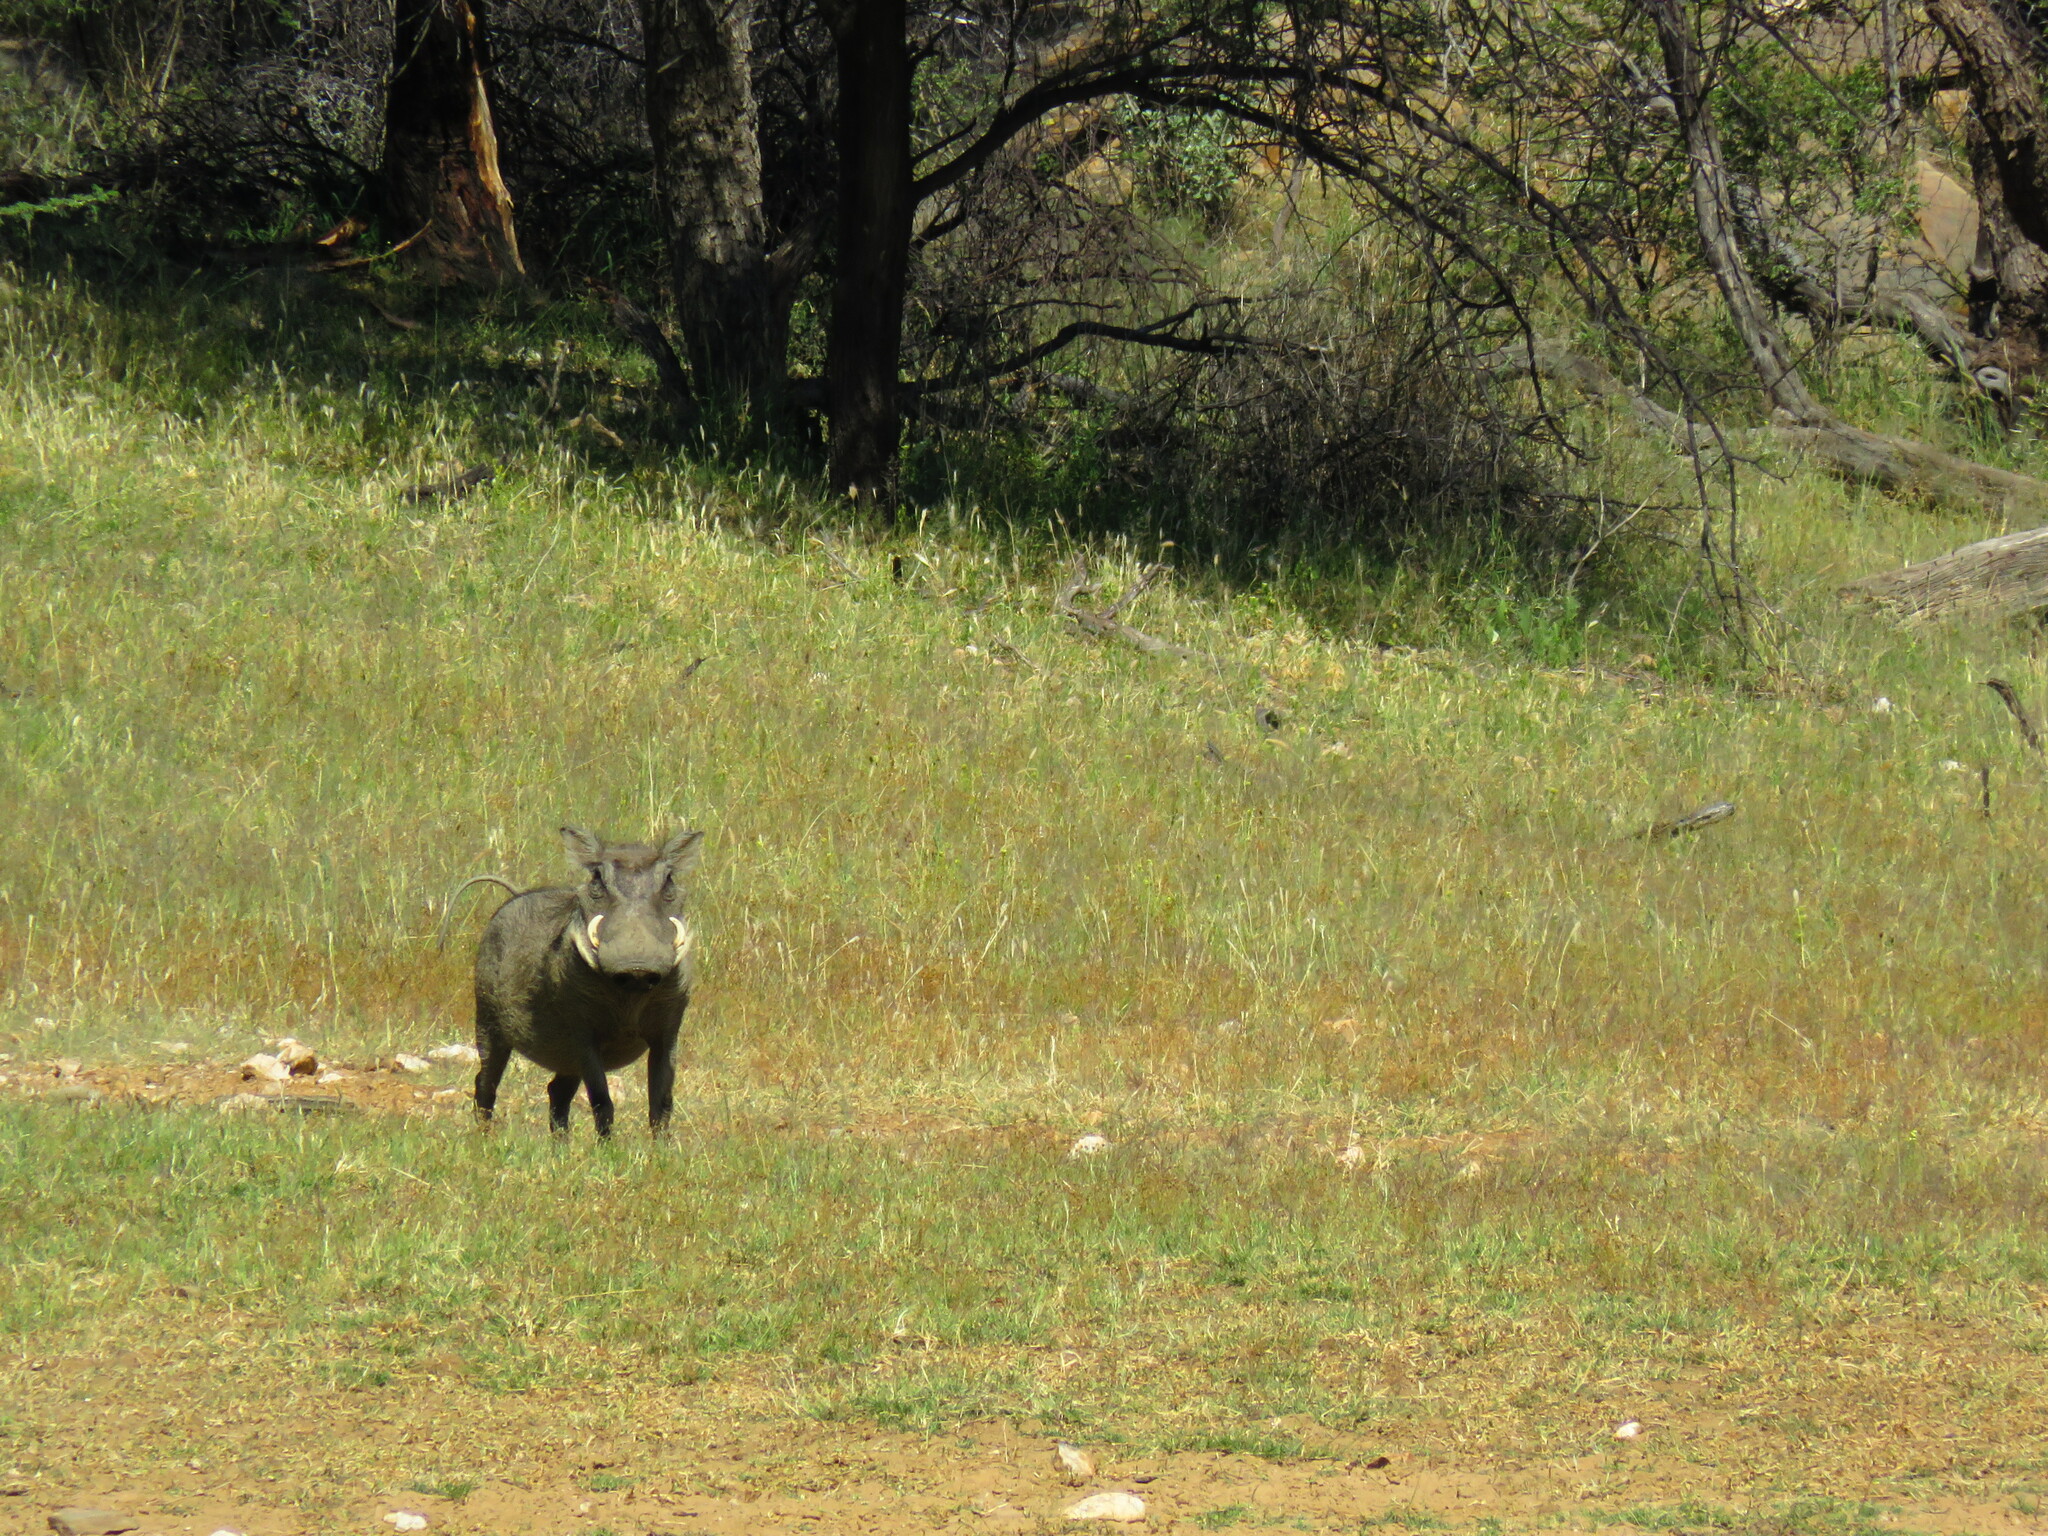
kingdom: Animalia
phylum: Chordata
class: Mammalia
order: Artiodactyla
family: Suidae
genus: Phacochoerus
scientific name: Phacochoerus africanus
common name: Common warthog
